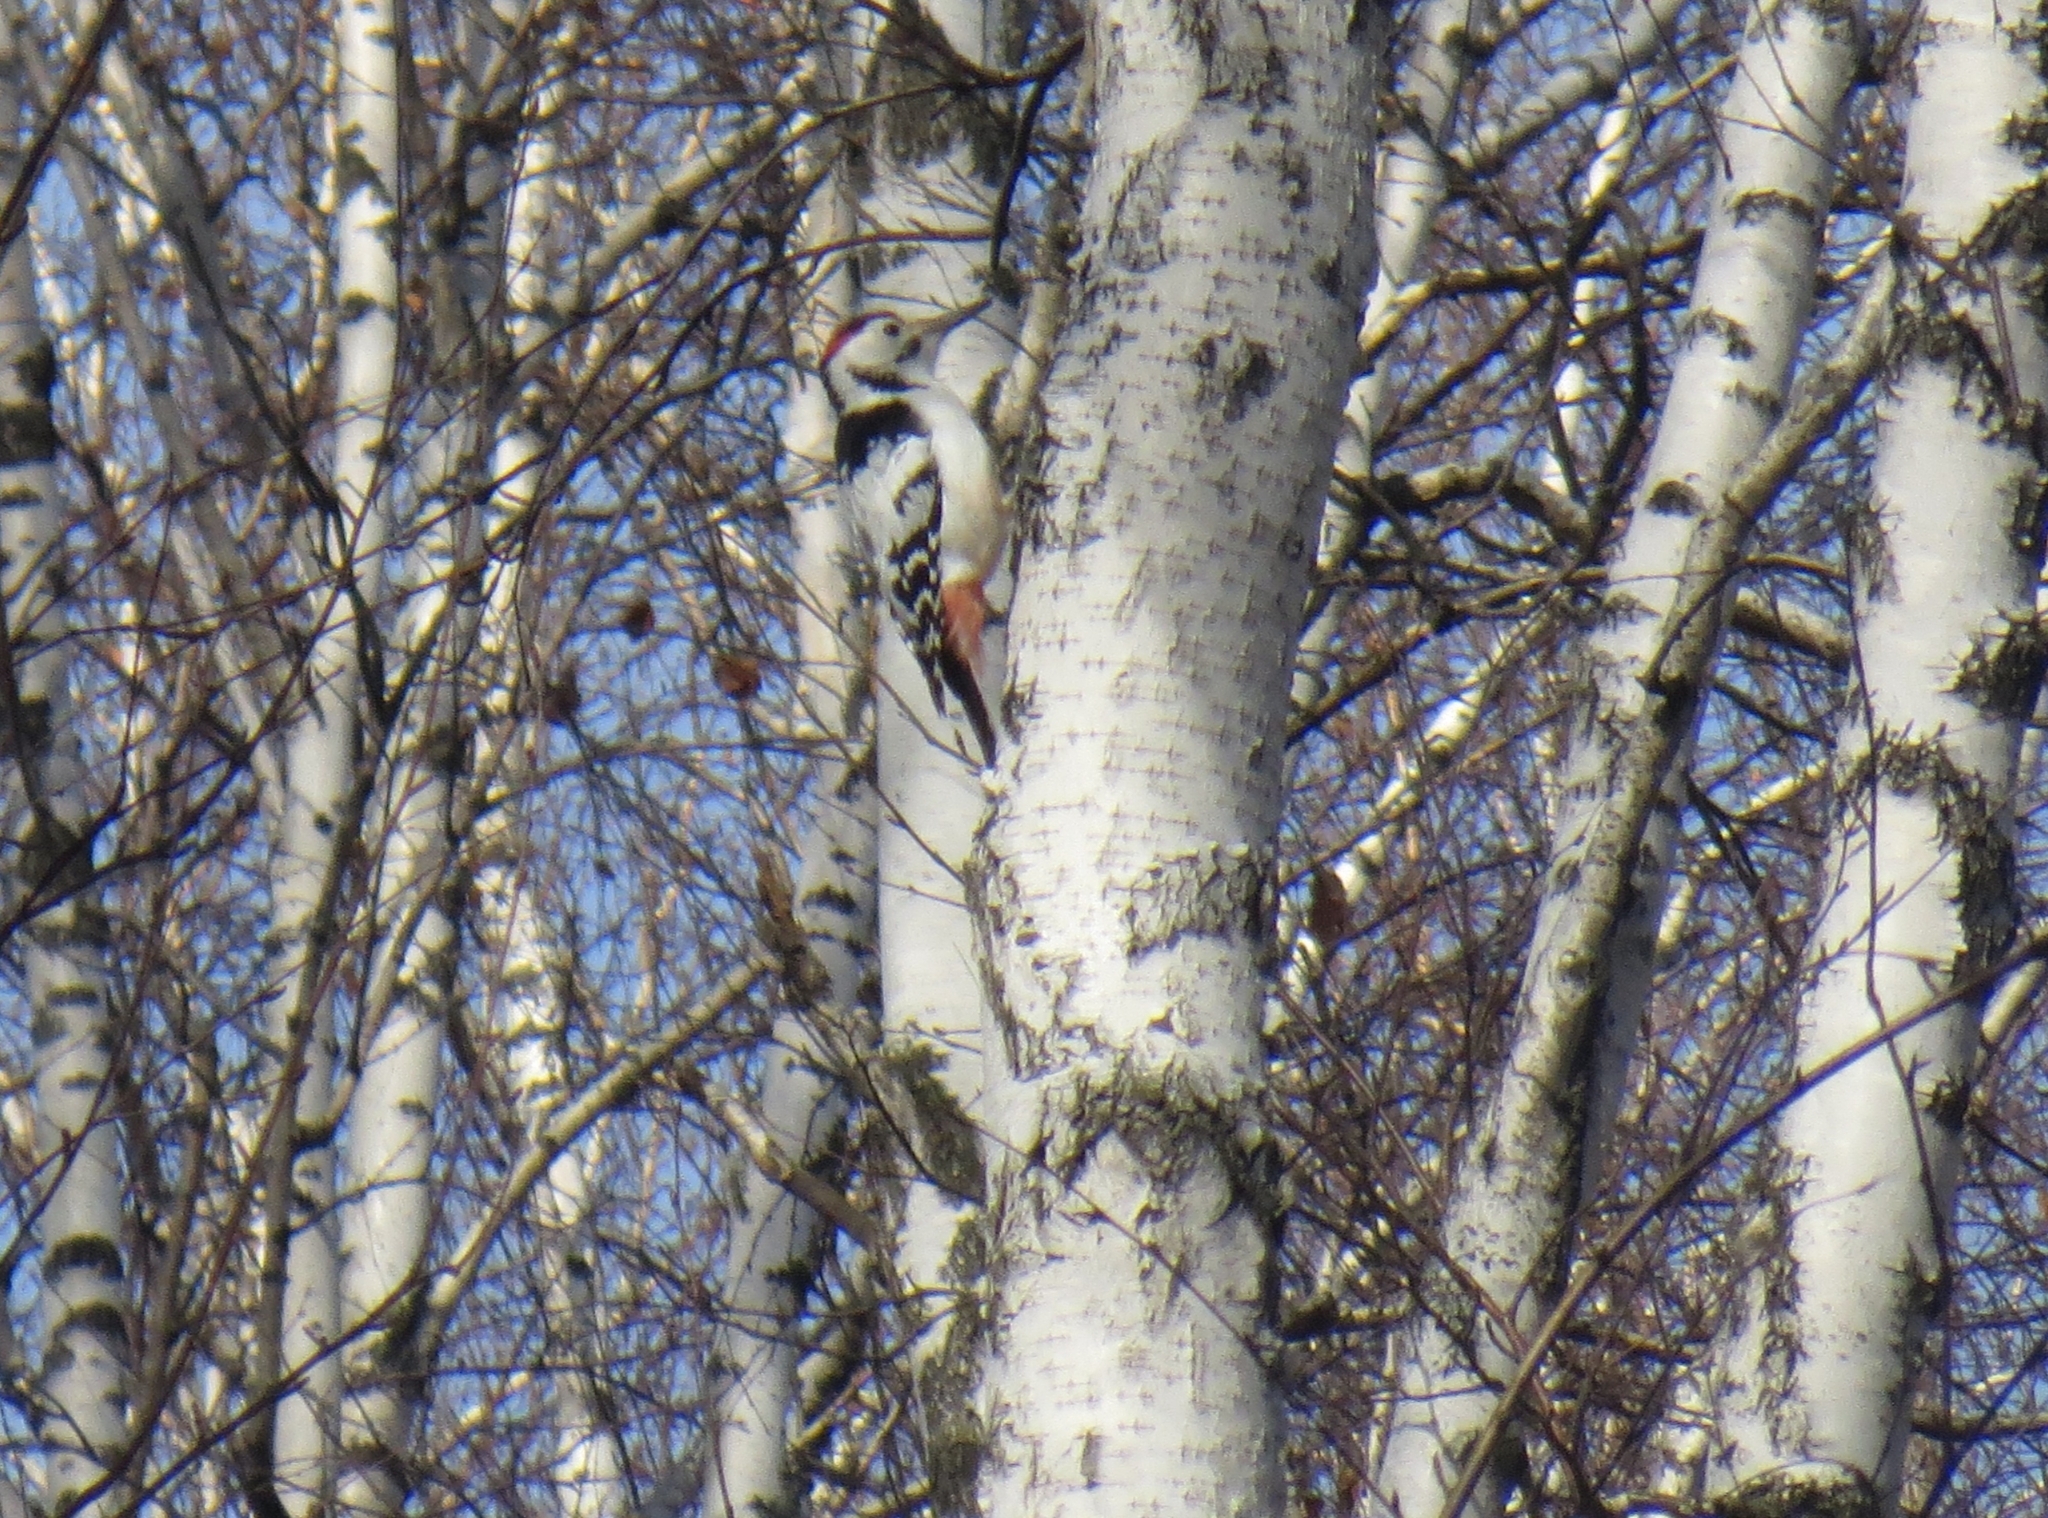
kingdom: Animalia
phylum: Chordata
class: Aves
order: Piciformes
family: Picidae
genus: Dendrocopos
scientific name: Dendrocopos leucotos
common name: White-backed woodpecker
